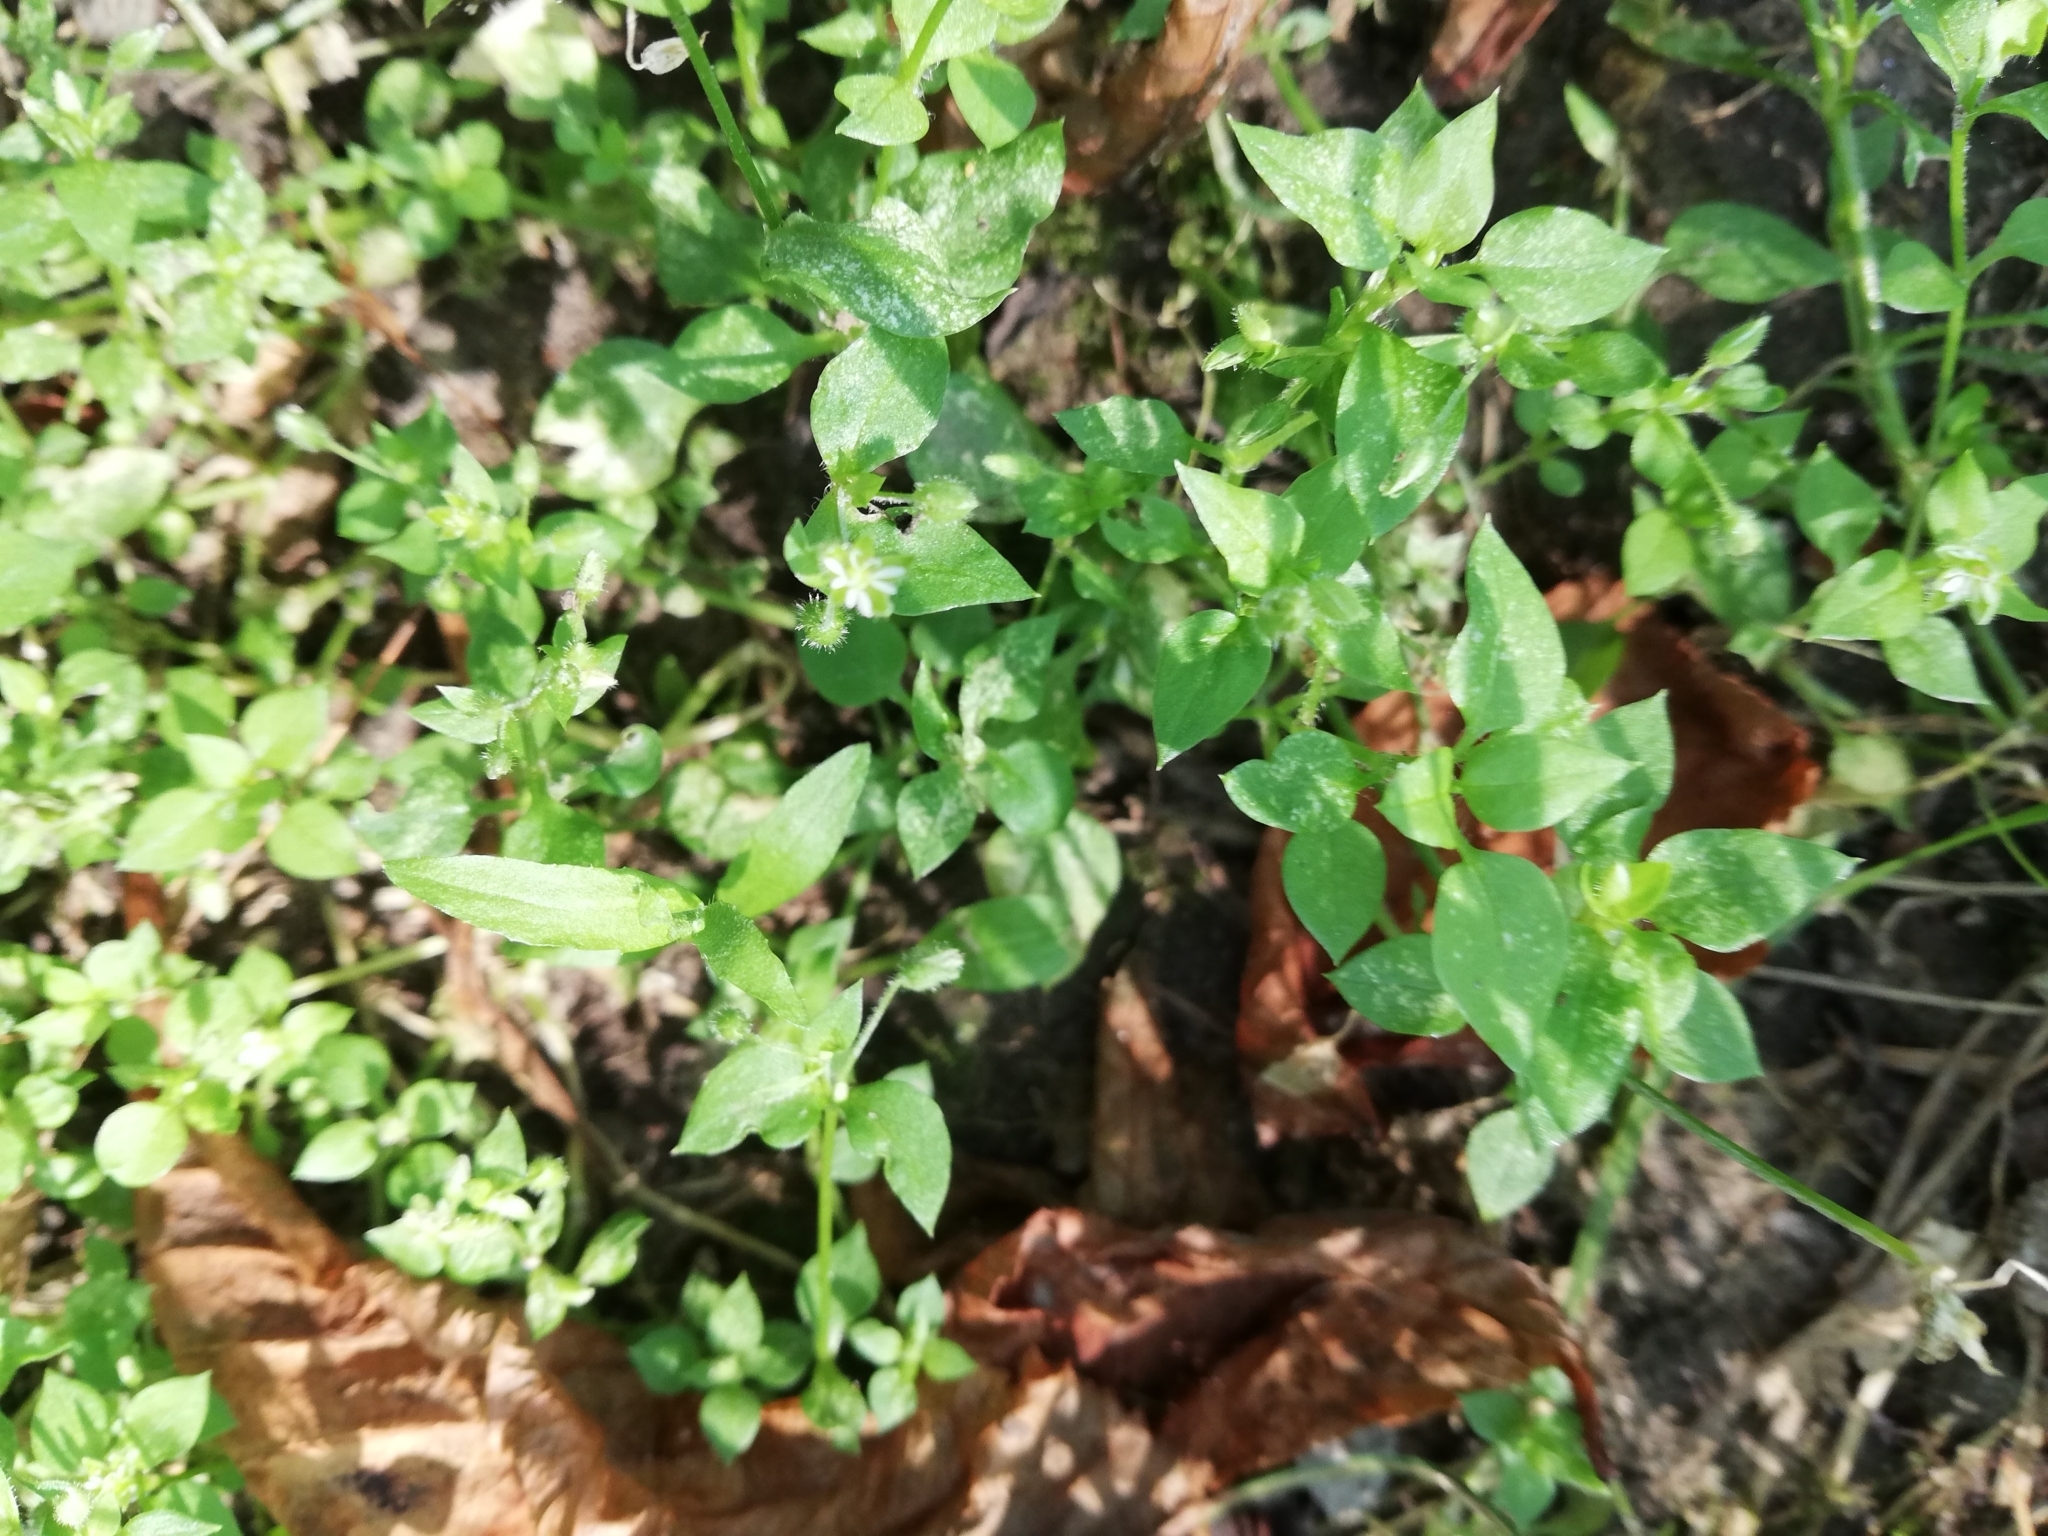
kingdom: Plantae
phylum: Tracheophyta
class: Magnoliopsida
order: Caryophyllales
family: Caryophyllaceae
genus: Stellaria
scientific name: Stellaria media
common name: Common chickweed
